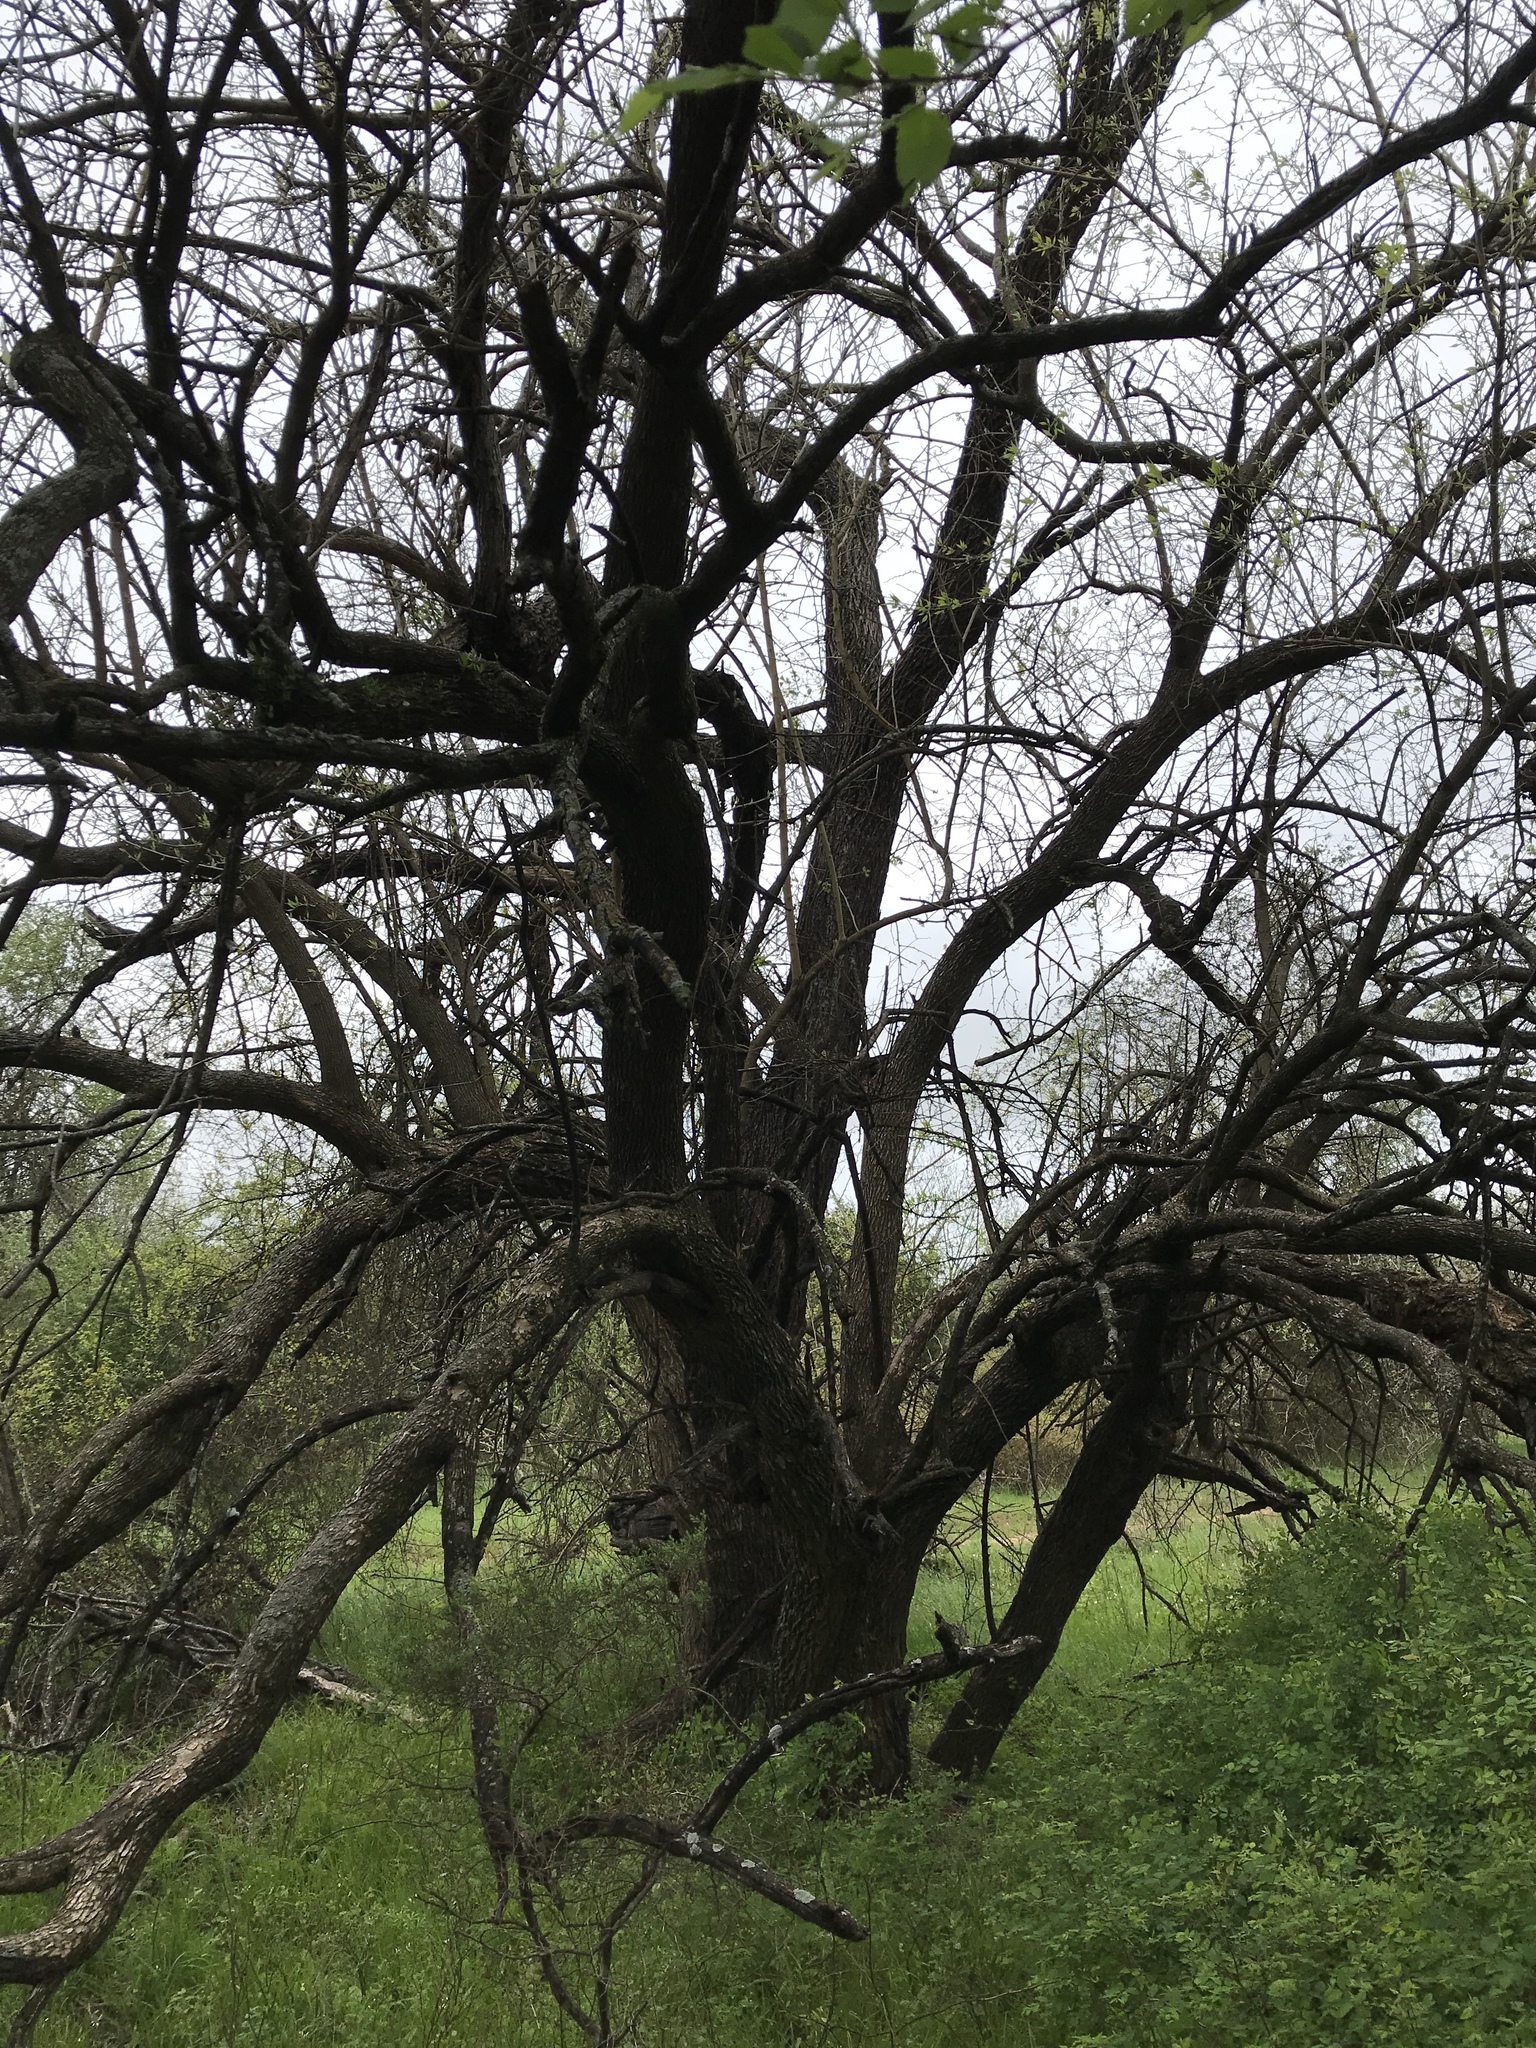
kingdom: Plantae
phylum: Tracheophyta
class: Magnoliopsida
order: Rosales
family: Moraceae
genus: Maclura
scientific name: Maclura pomifera
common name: Osage-orange
